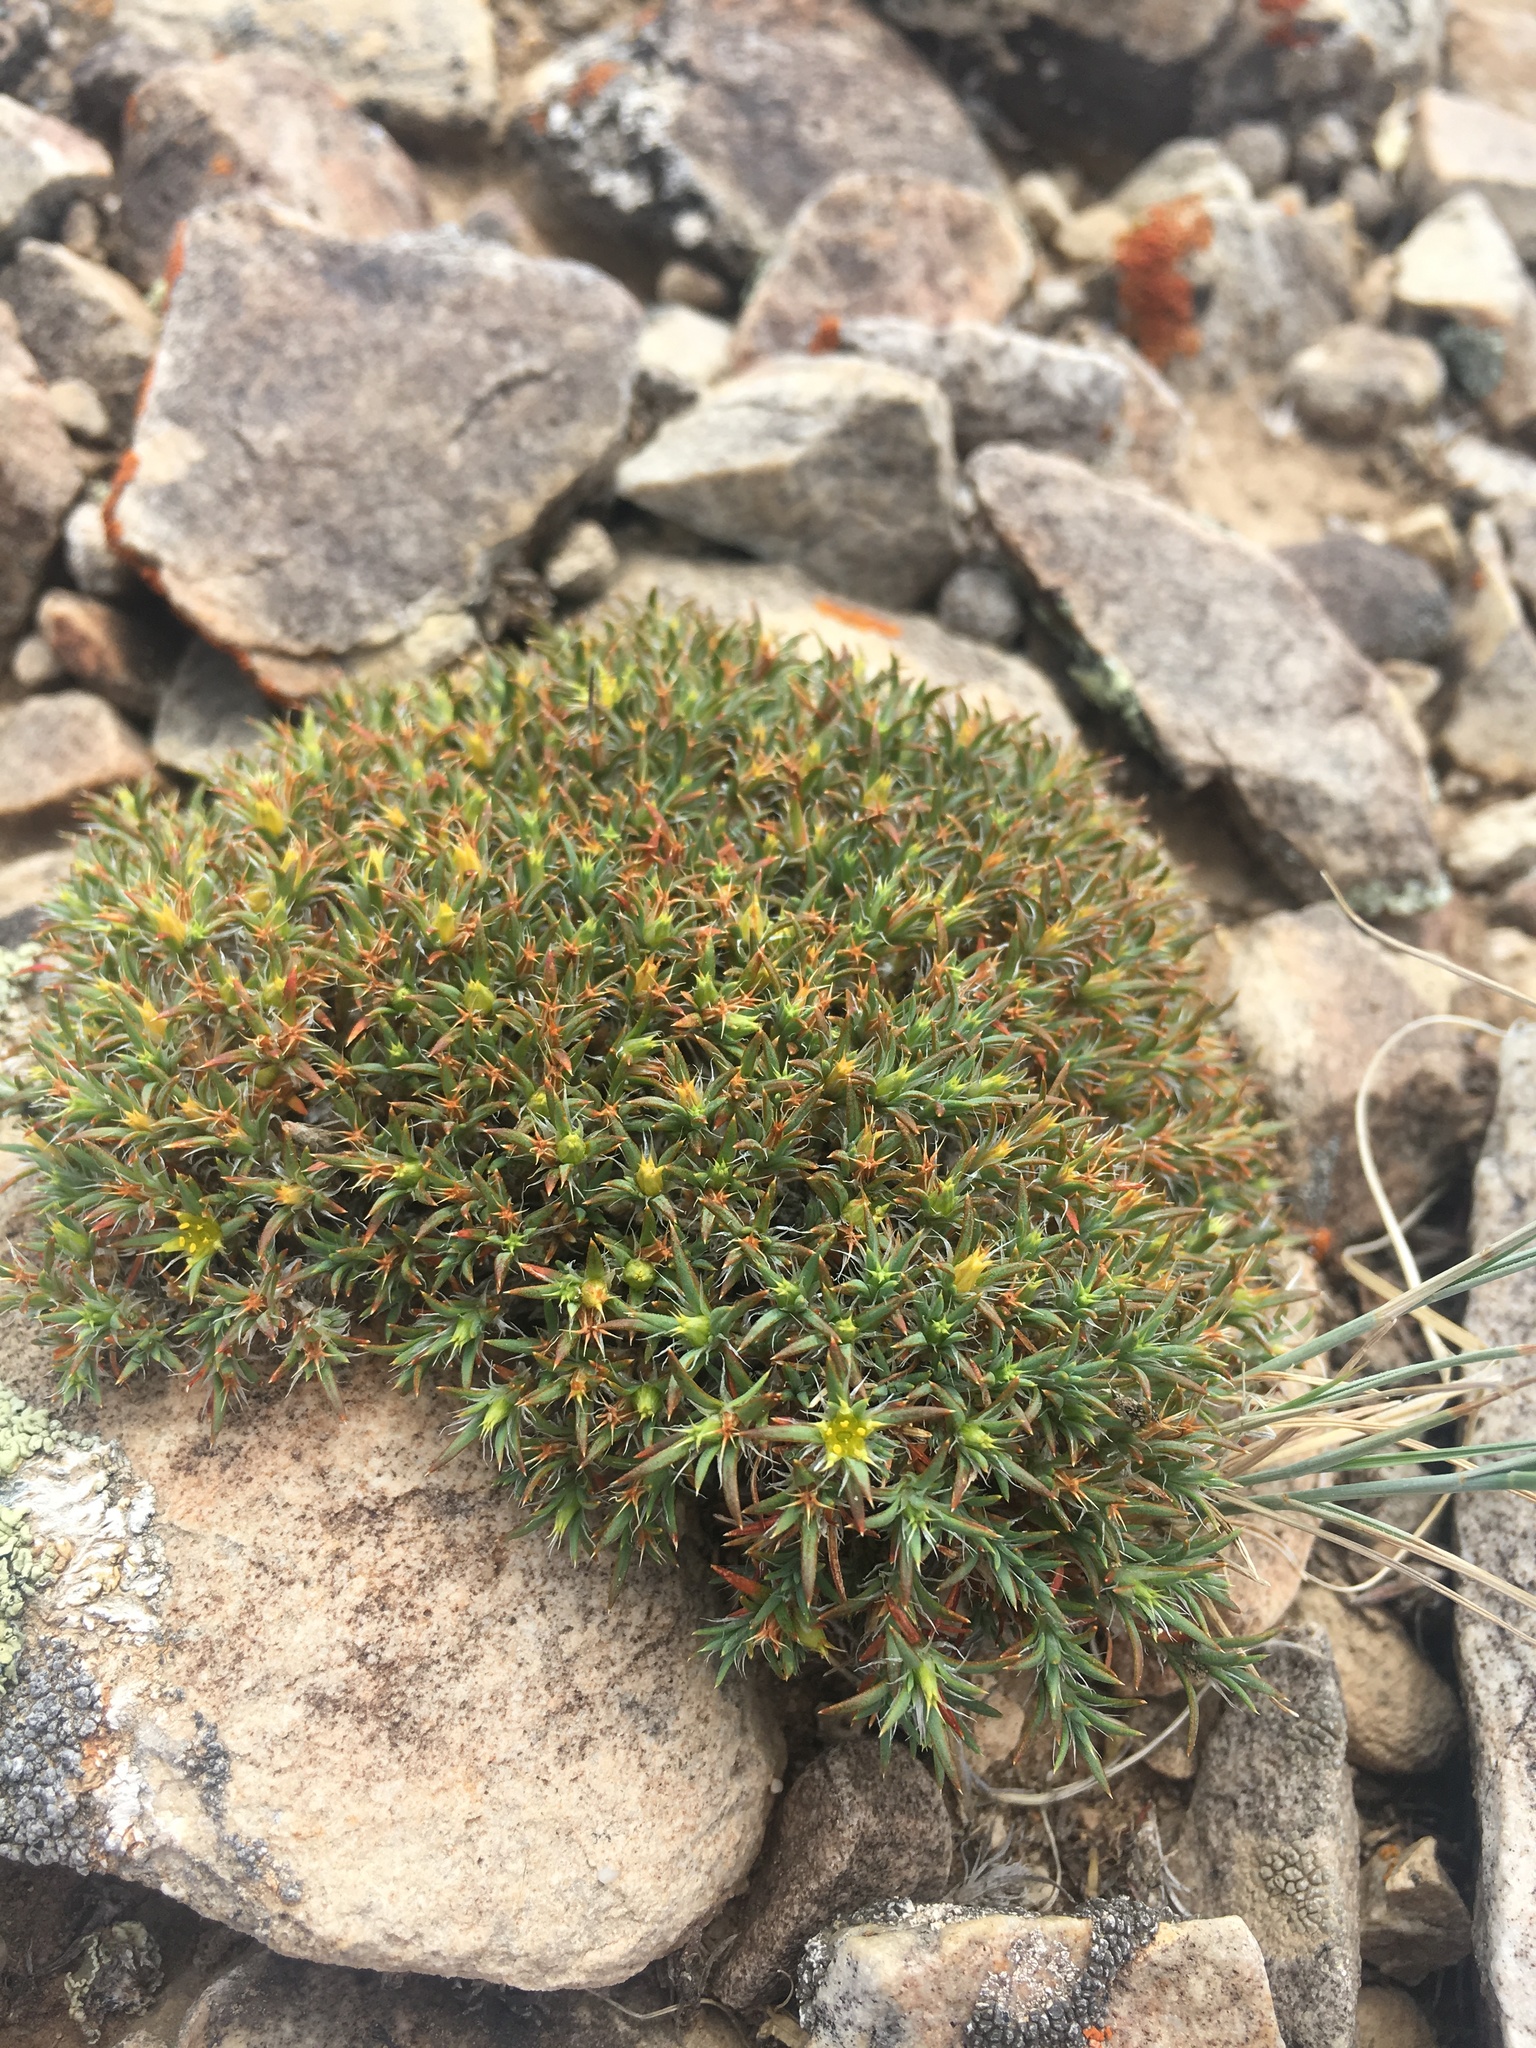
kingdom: Plantae
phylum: Tracheophyta
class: Magnoliopsida
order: Caryophyllales
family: Caryophyllaceae
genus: Paronychia
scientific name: Paronychia sessiliflora
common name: Creeping nailwort
